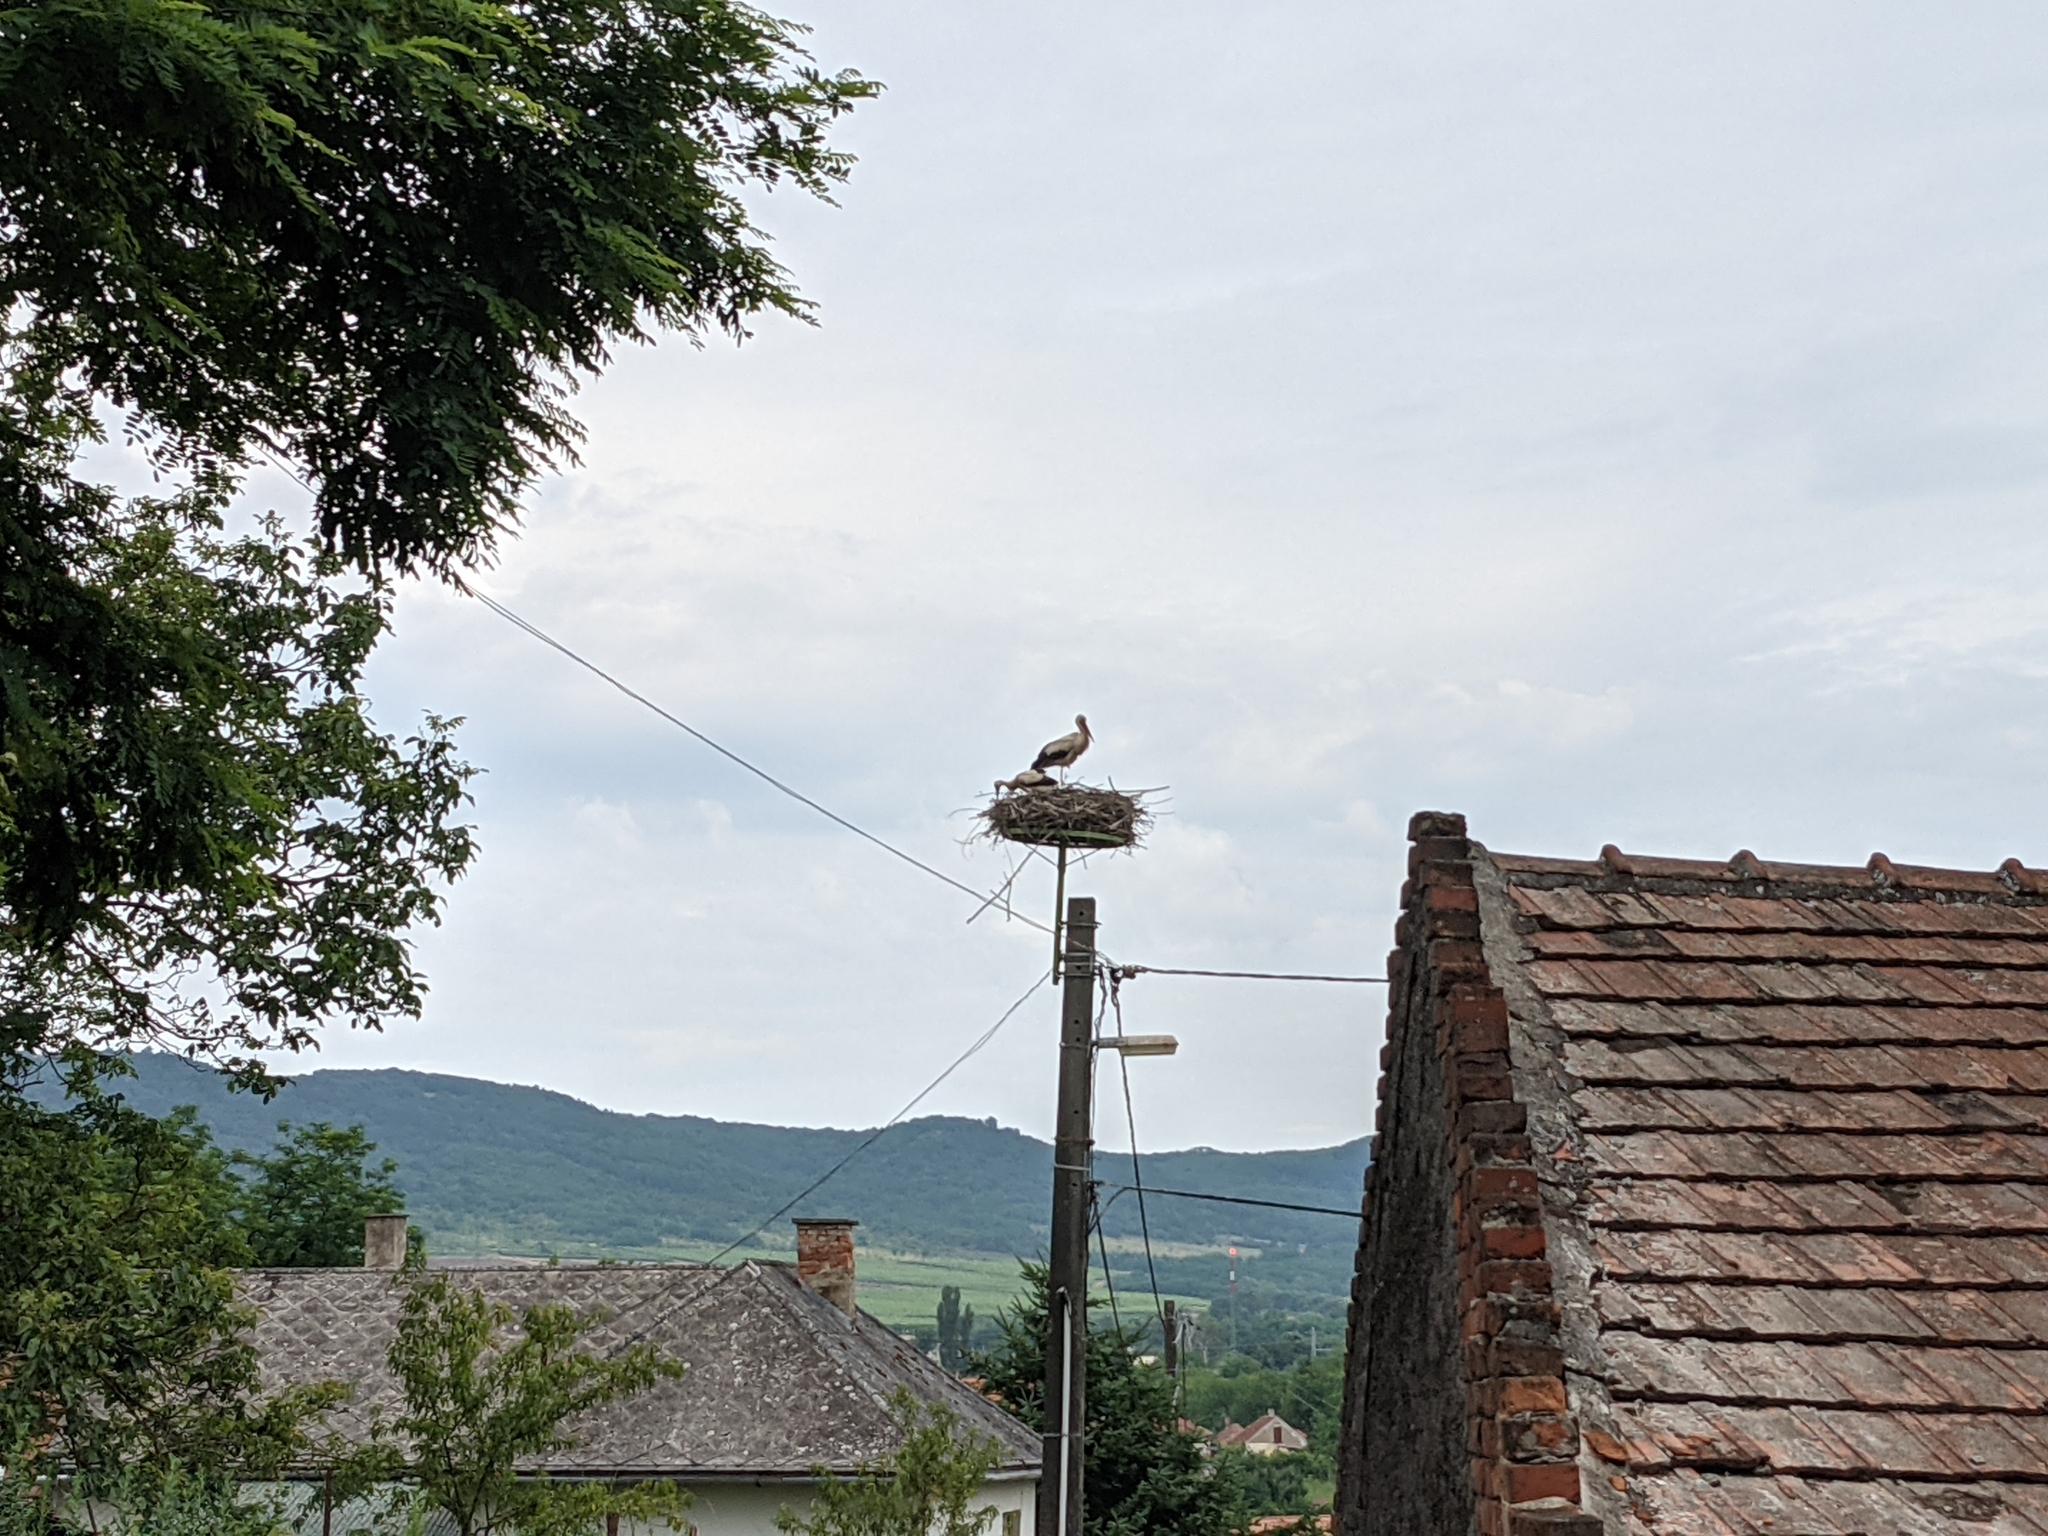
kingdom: Animalia
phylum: Chordata
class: Aves
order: Ciconiiformes
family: Ciconiidae
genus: Ciconia
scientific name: Ciconia ciconia
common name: White stork
